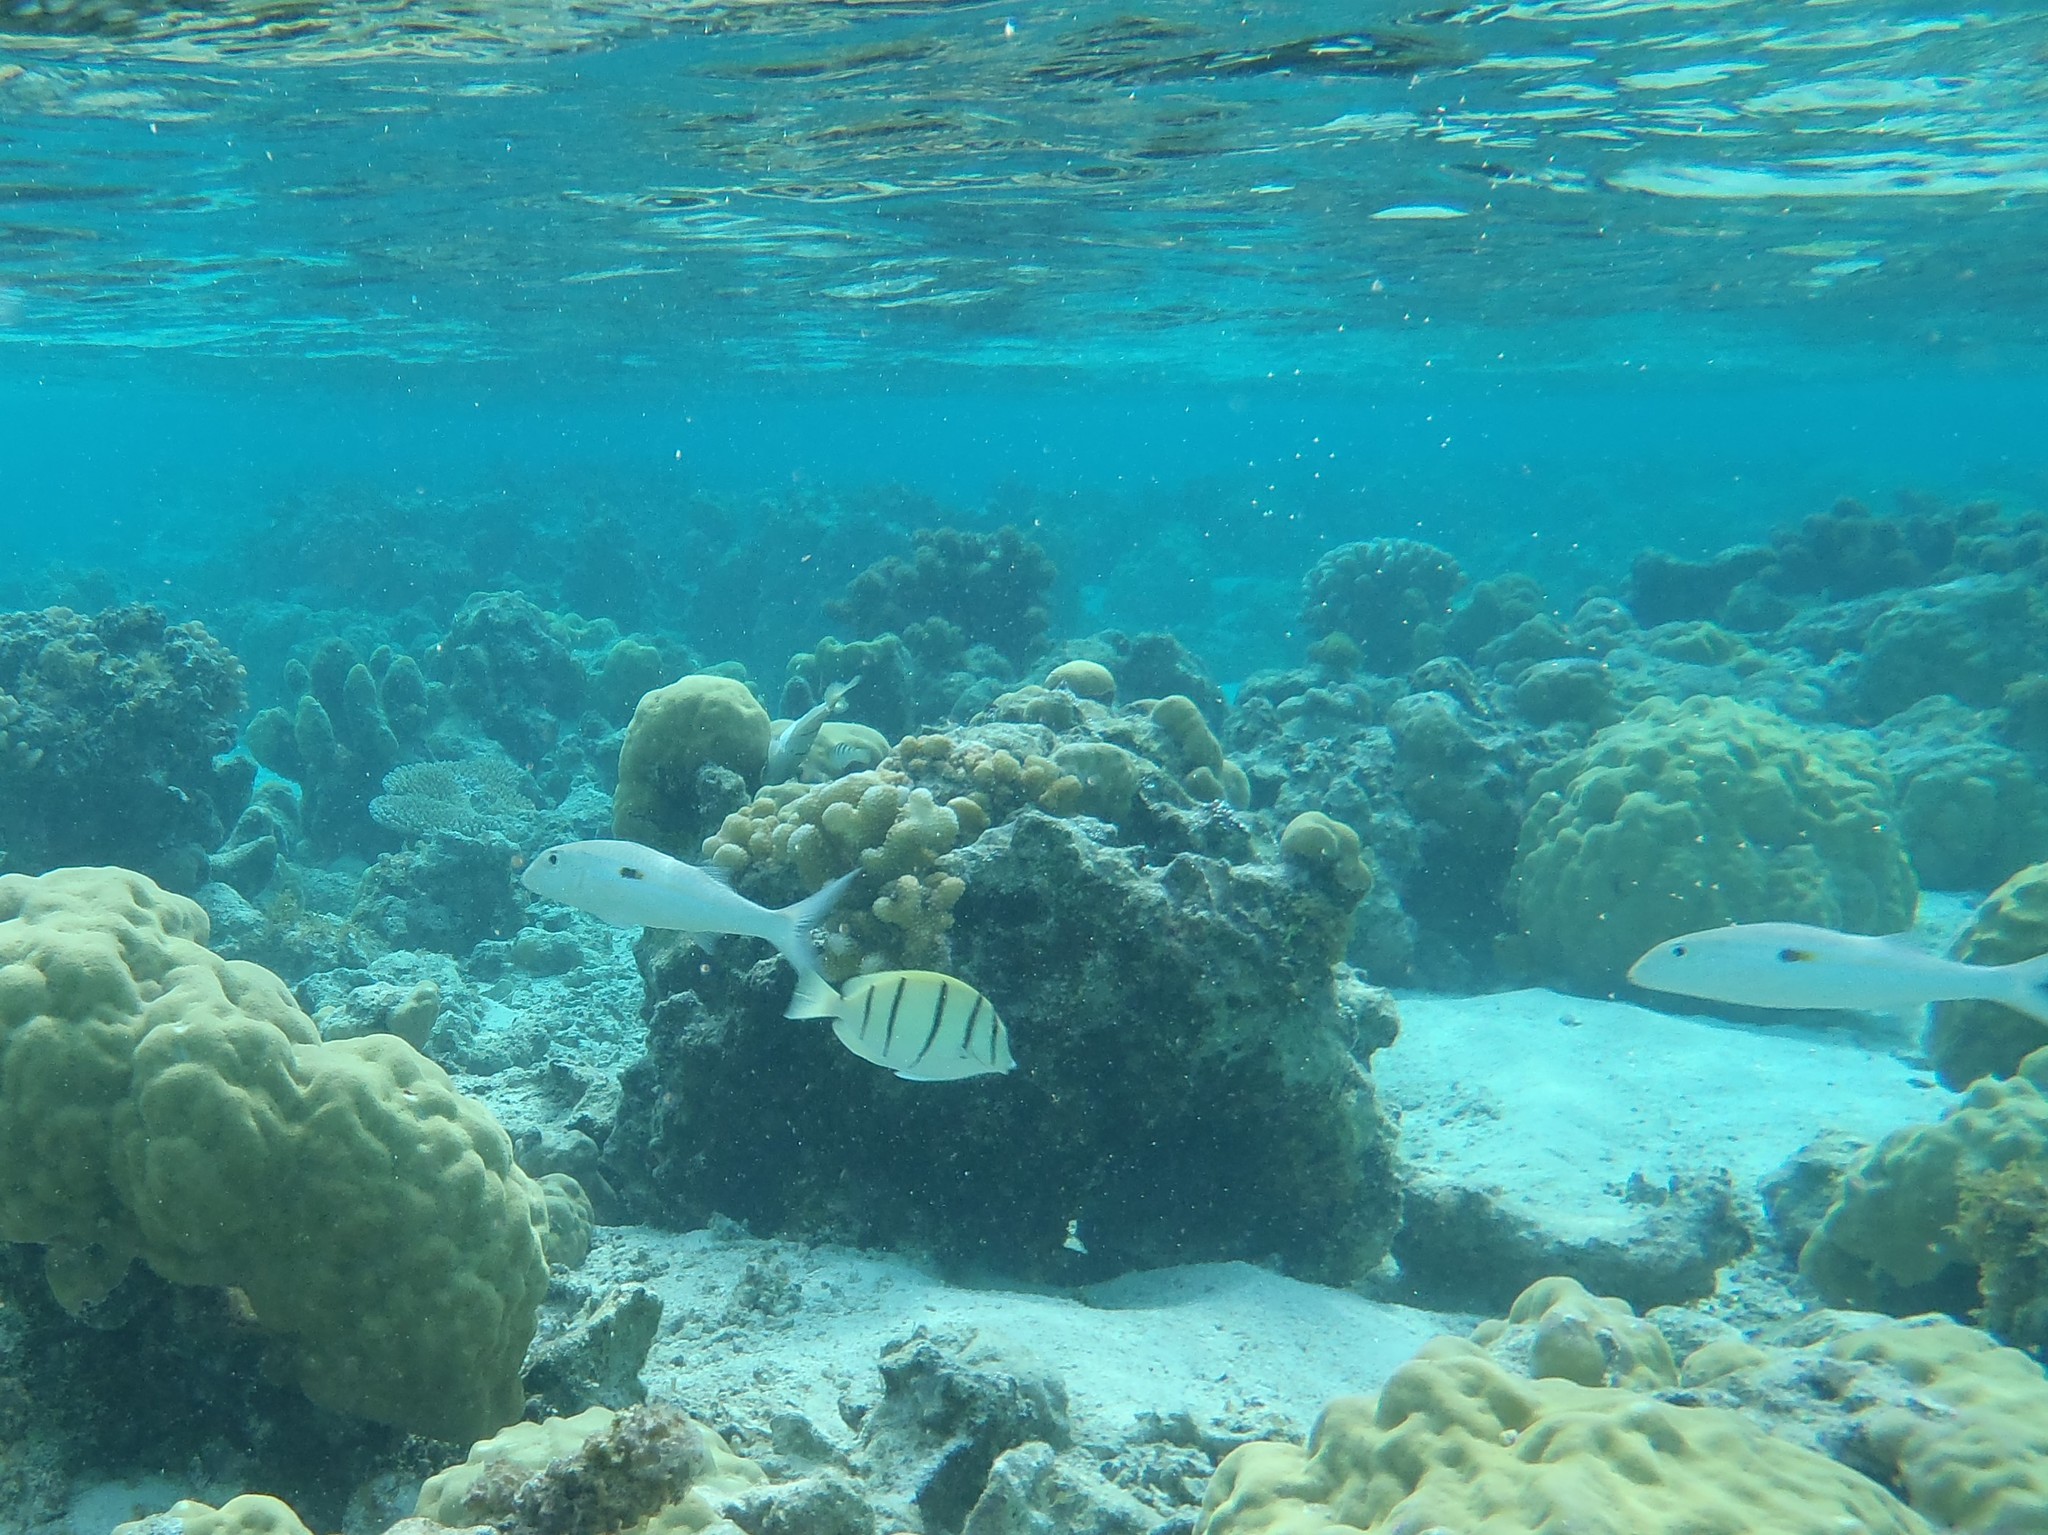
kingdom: Animalia
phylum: Chordata
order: Perciformes
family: Acanthuridae
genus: Acanthurus
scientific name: Acanthurus triostegus
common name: Convict surgeonfish
